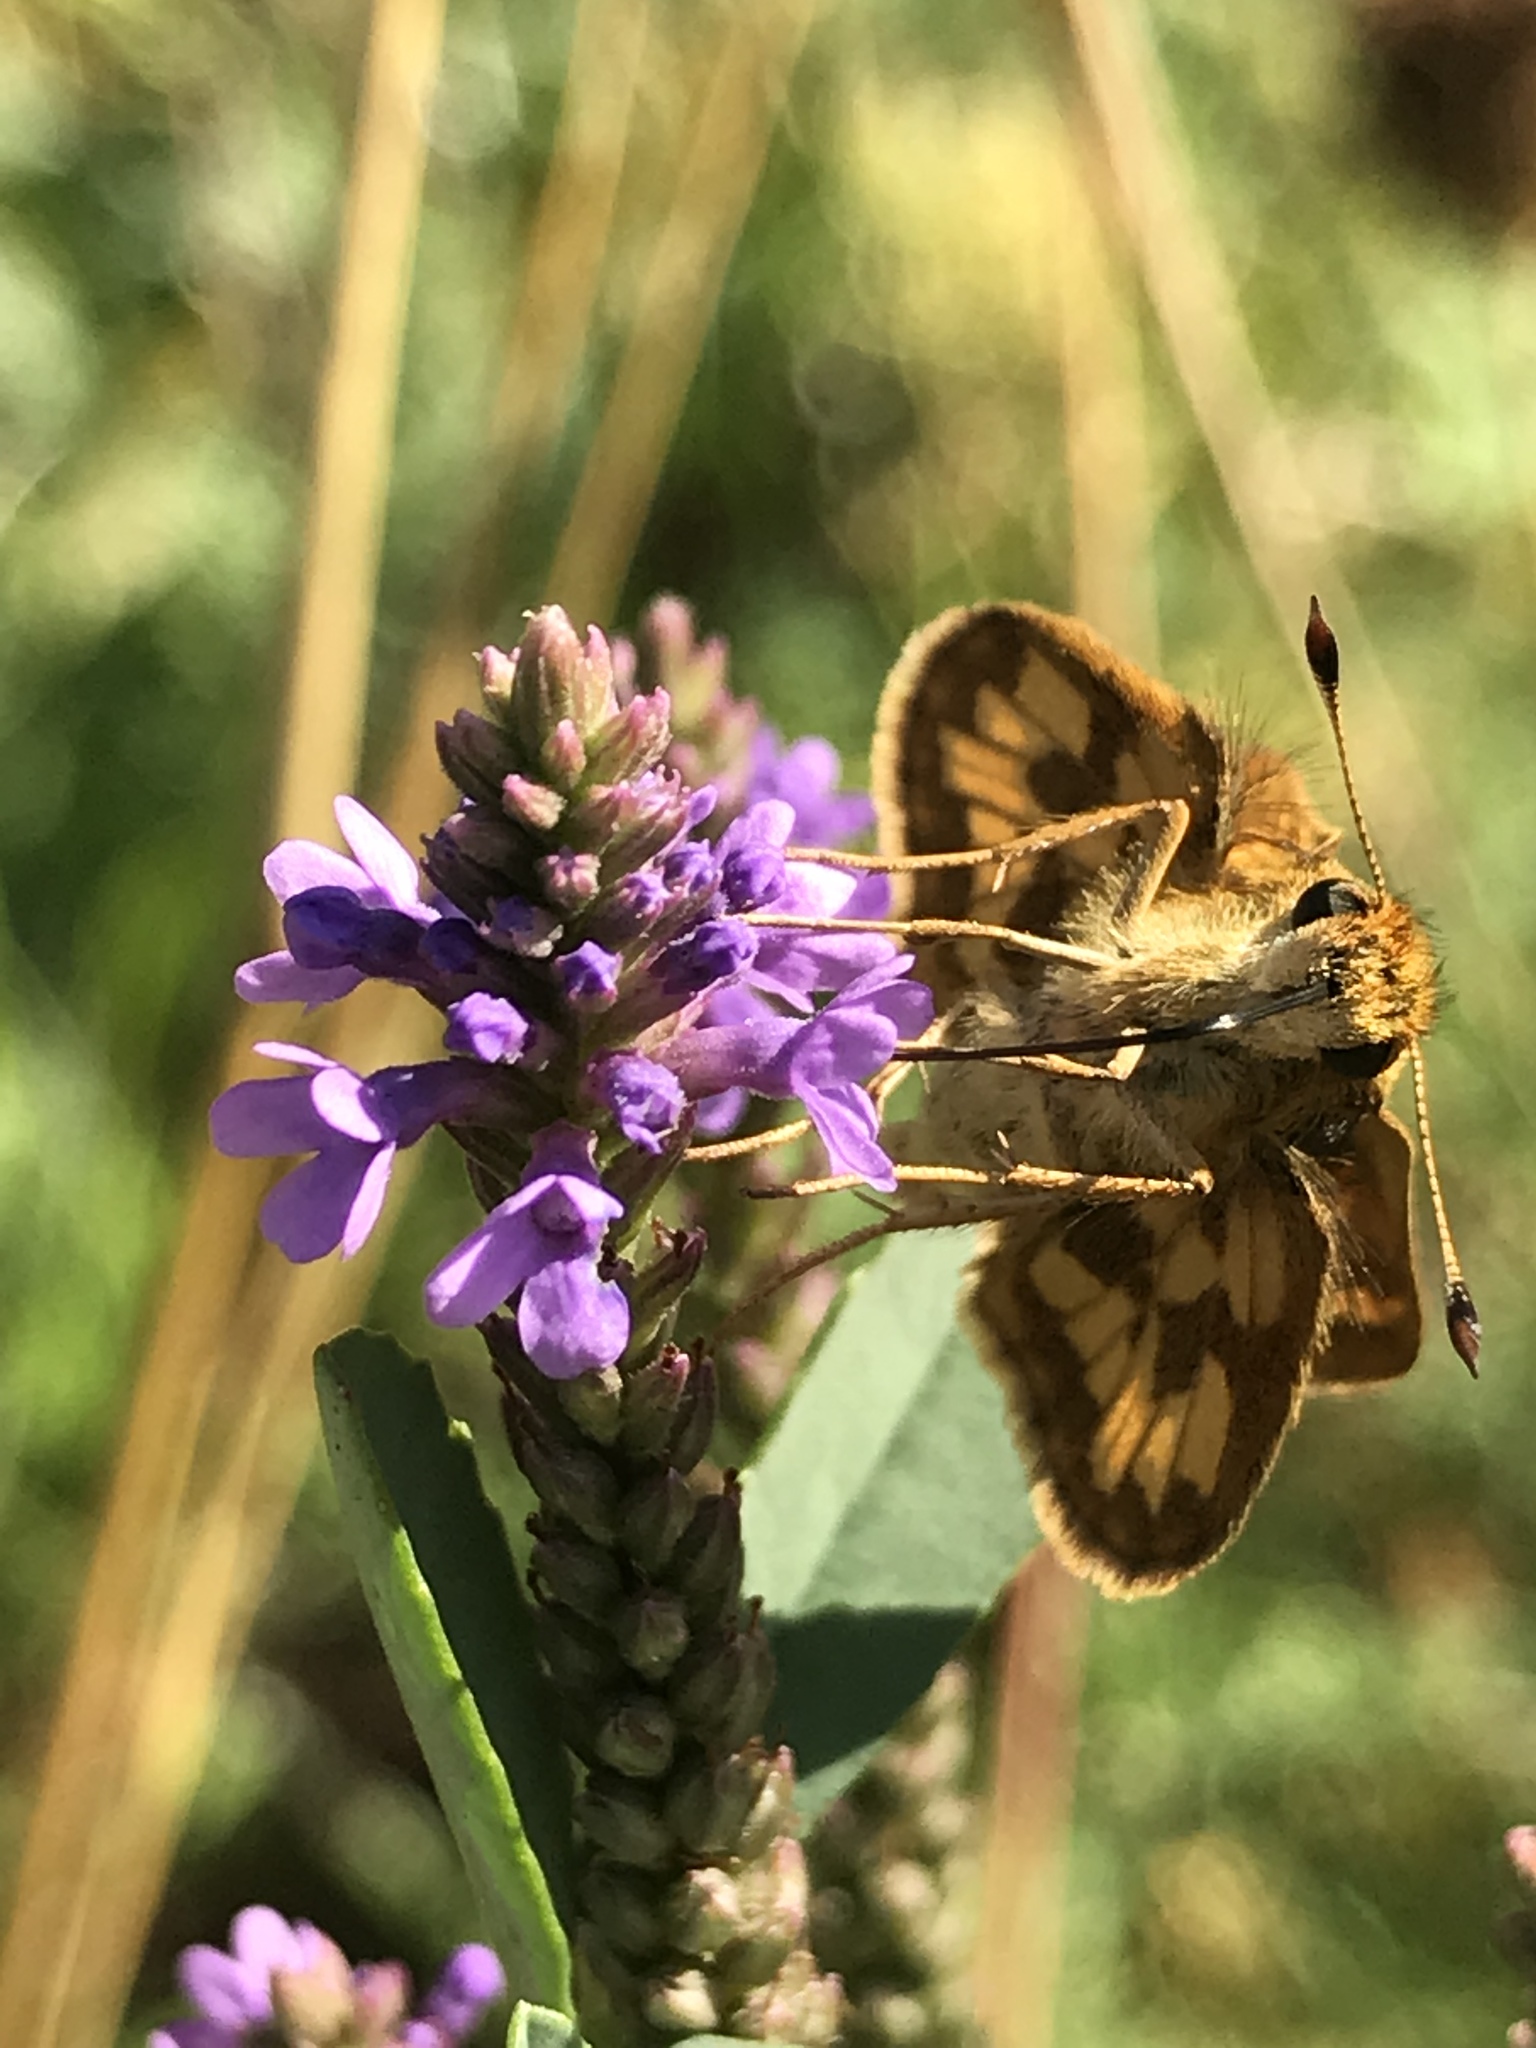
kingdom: Animalia
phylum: Arthropoda
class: Insecta
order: Lepidoptera
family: Hesperiidae
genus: Polites
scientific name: Polites coras
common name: Peck's skipper
